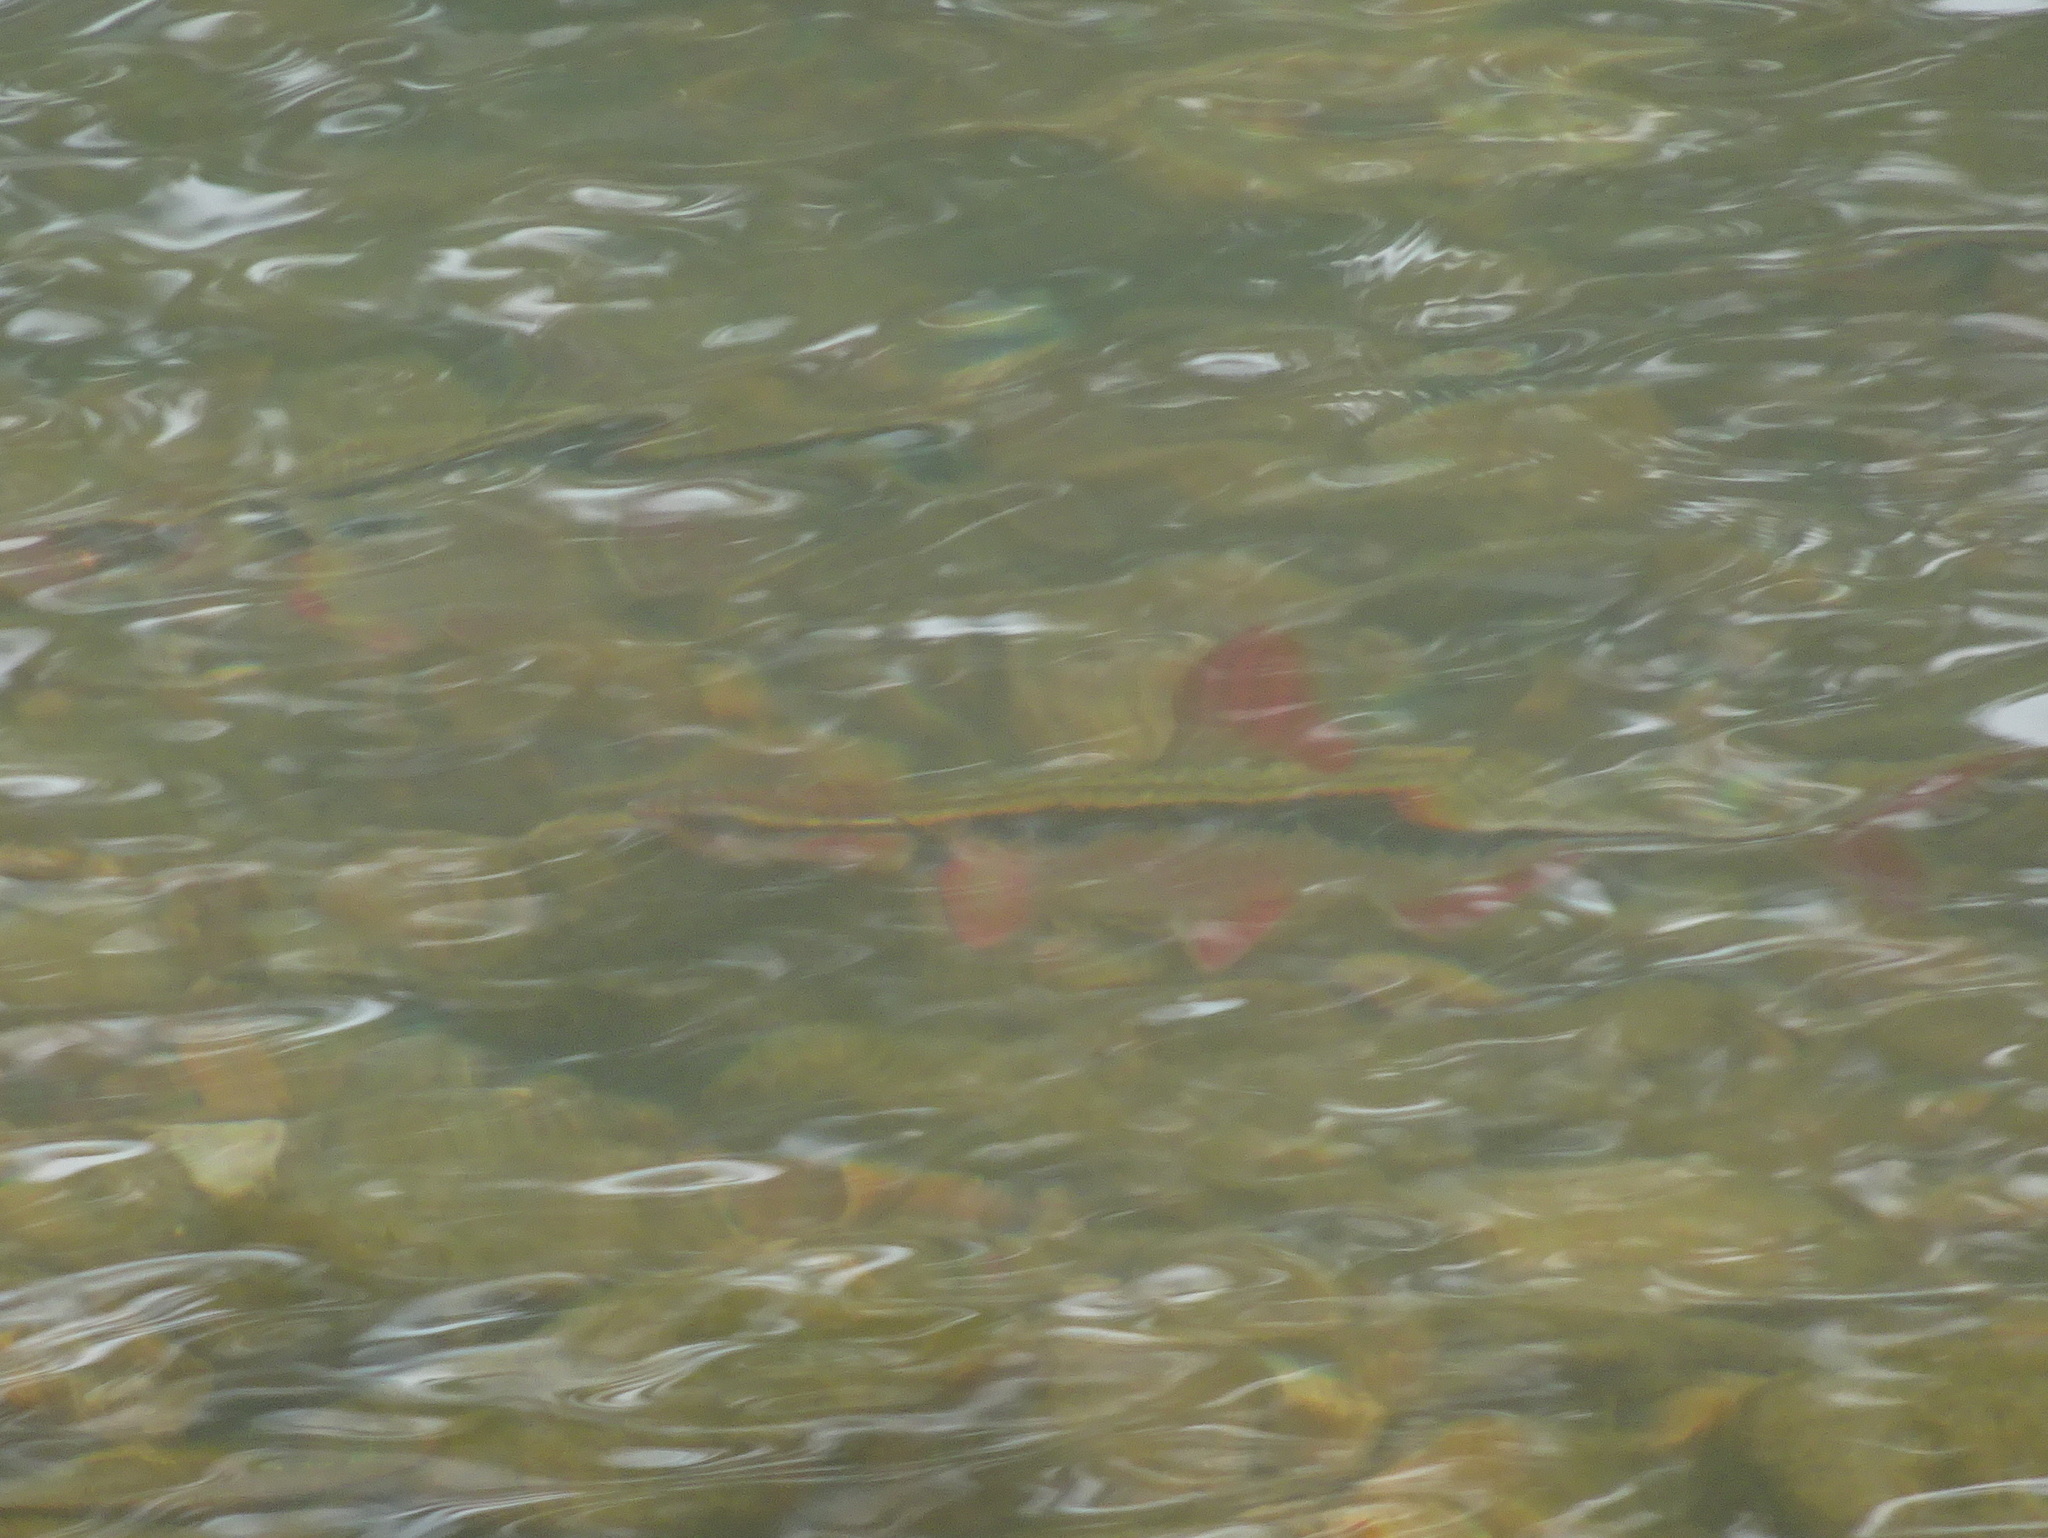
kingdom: Animalia
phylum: Chordata
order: Cypriniformes
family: Cyprinidae
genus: Luxilus
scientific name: Luxilus zonatus
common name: Bleeding shiner
